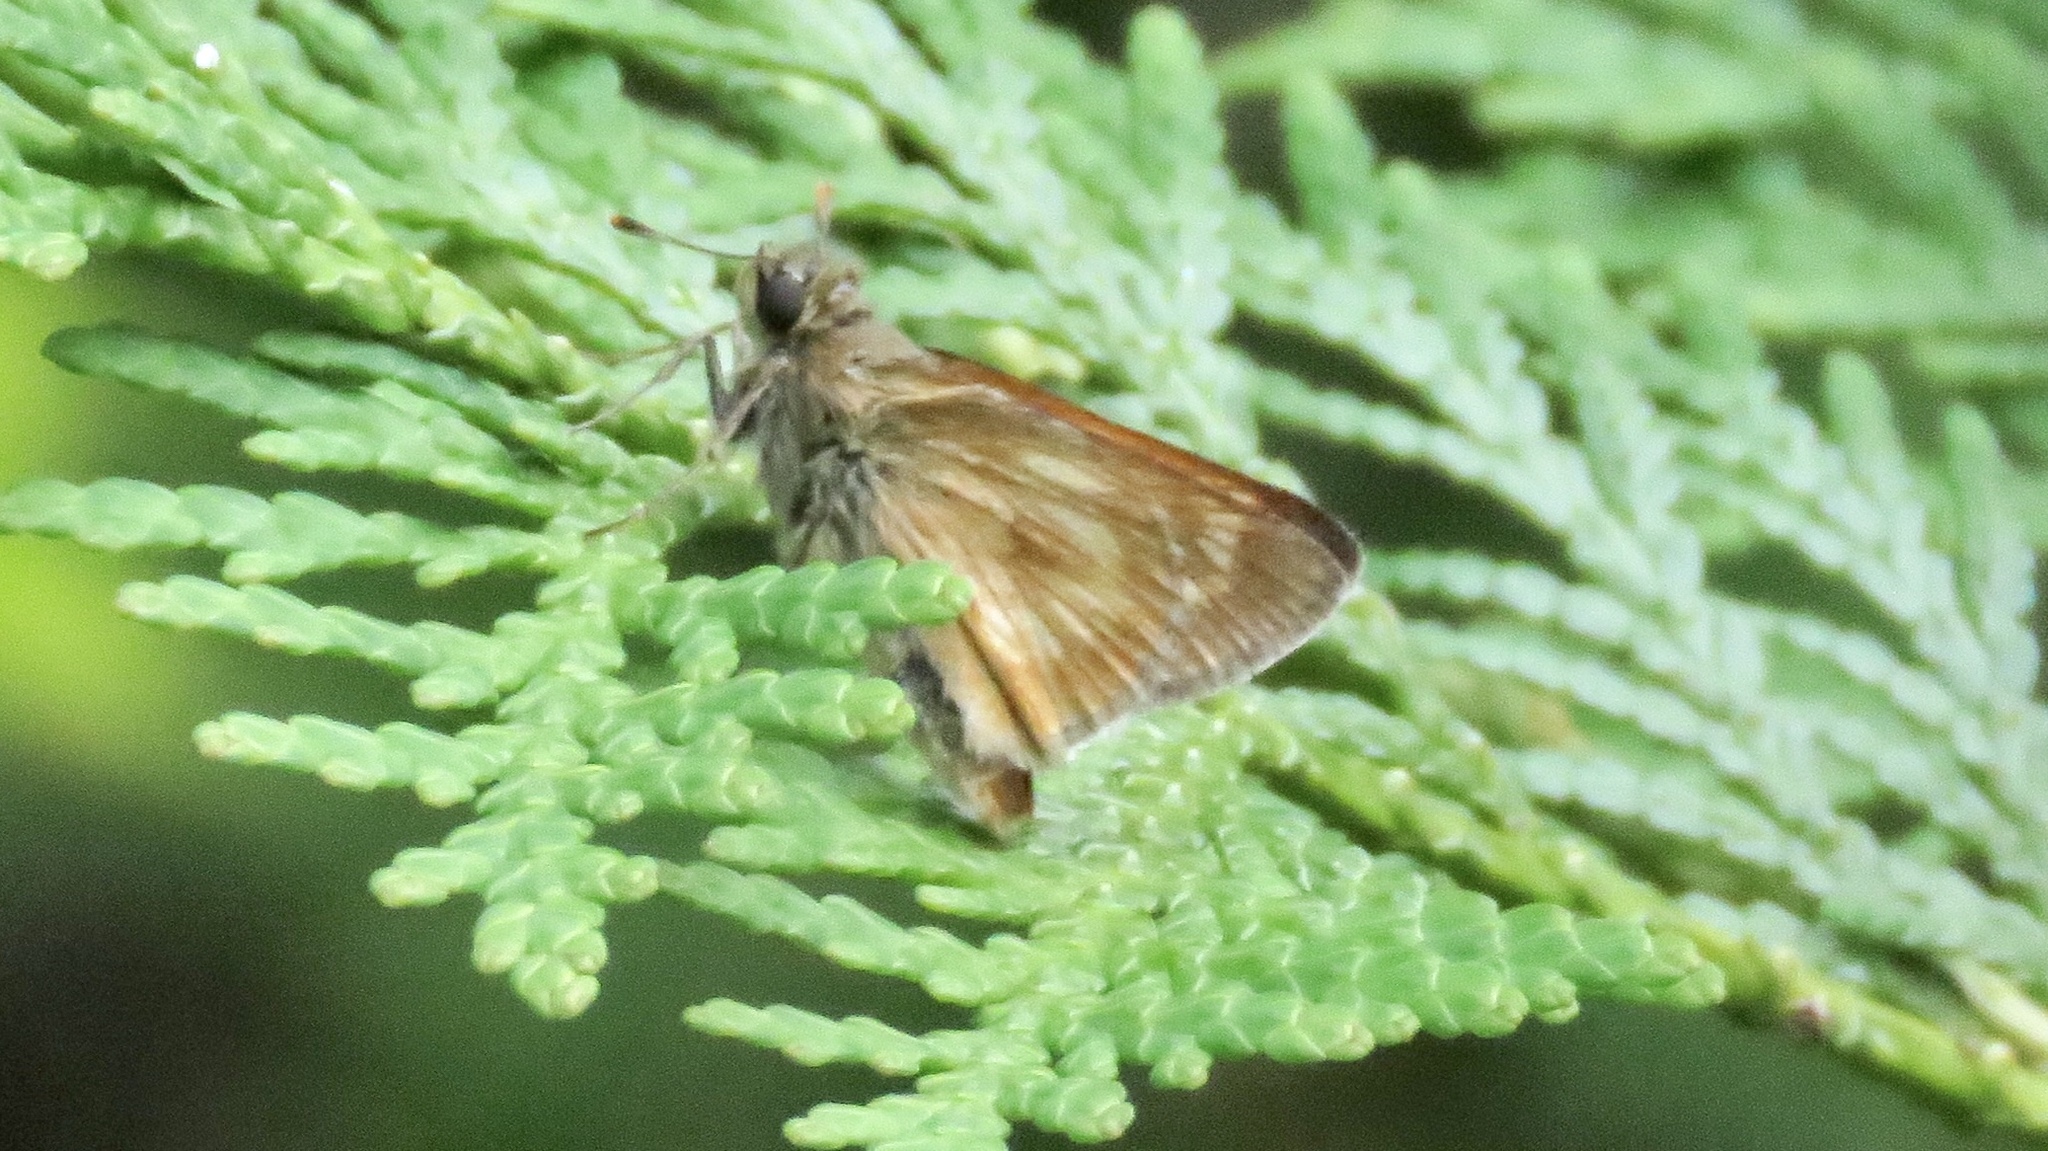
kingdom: Animalia
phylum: Arthropoda
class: Insecta
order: Lepidoptera
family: Hesperiidae
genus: Polites
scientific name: Polites mystic
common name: Long dash
